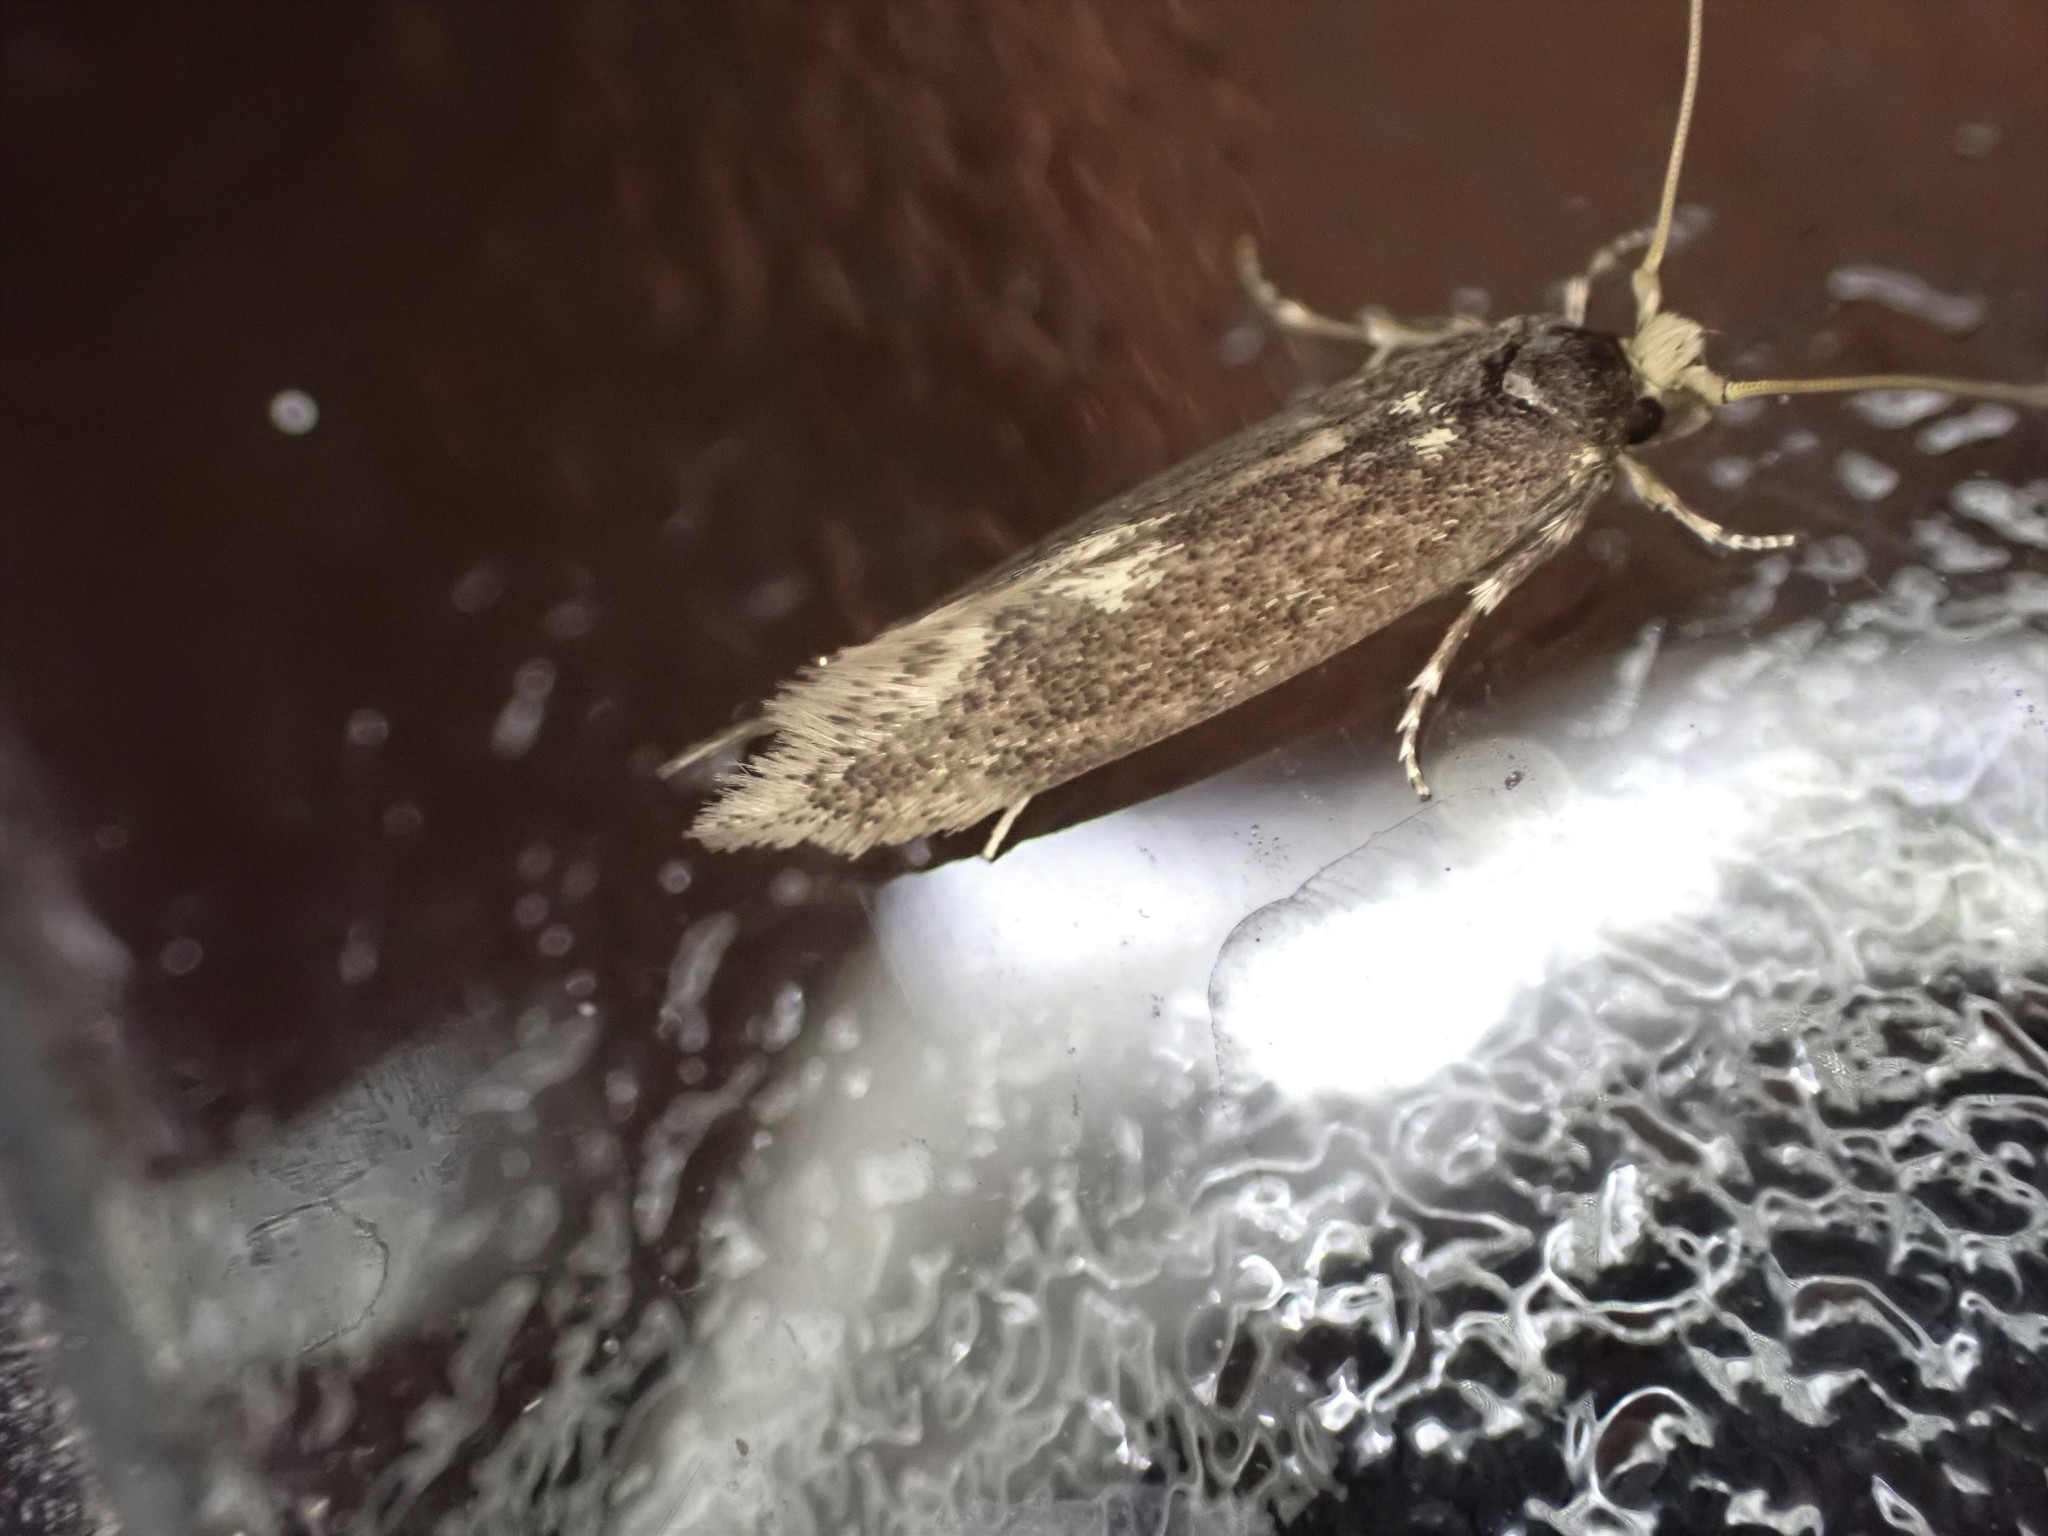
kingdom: Animalia
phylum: Arthropoda
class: Insecta
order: Lepidoptera
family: Tineidae
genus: Opogona
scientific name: Opogona omoscopa
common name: Moth
